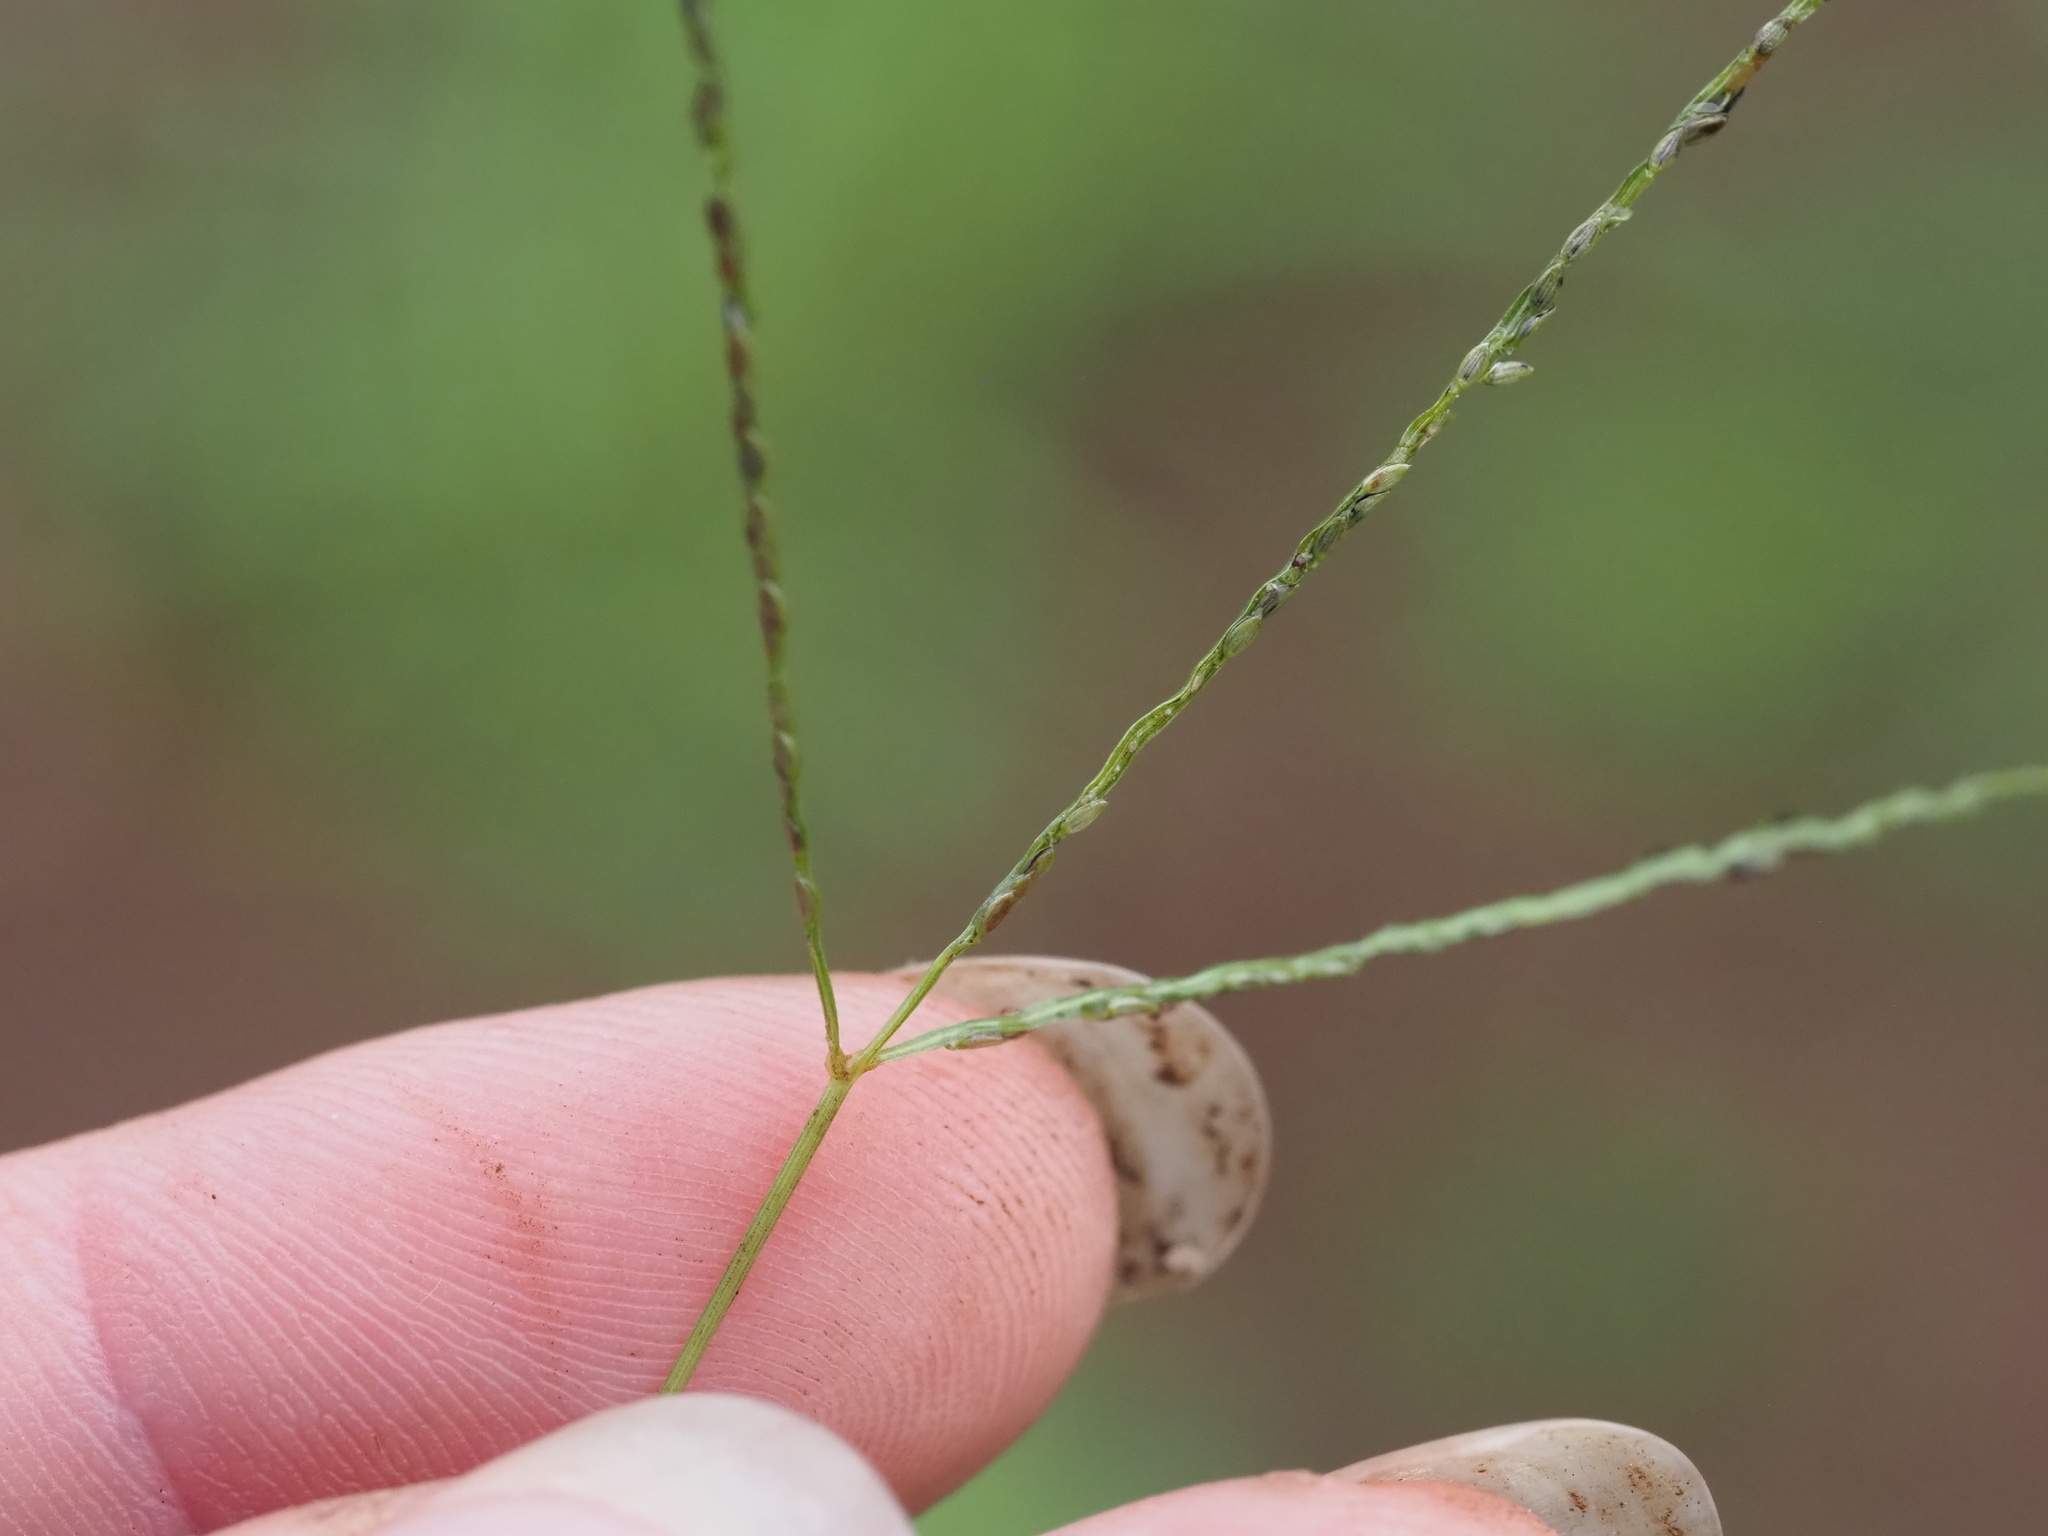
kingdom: Plantae
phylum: Tracheophyta
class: Liliopsida
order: Poales
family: Poaceae
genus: Digitaria
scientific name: Digitaria violascens
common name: Violet crabgrass
